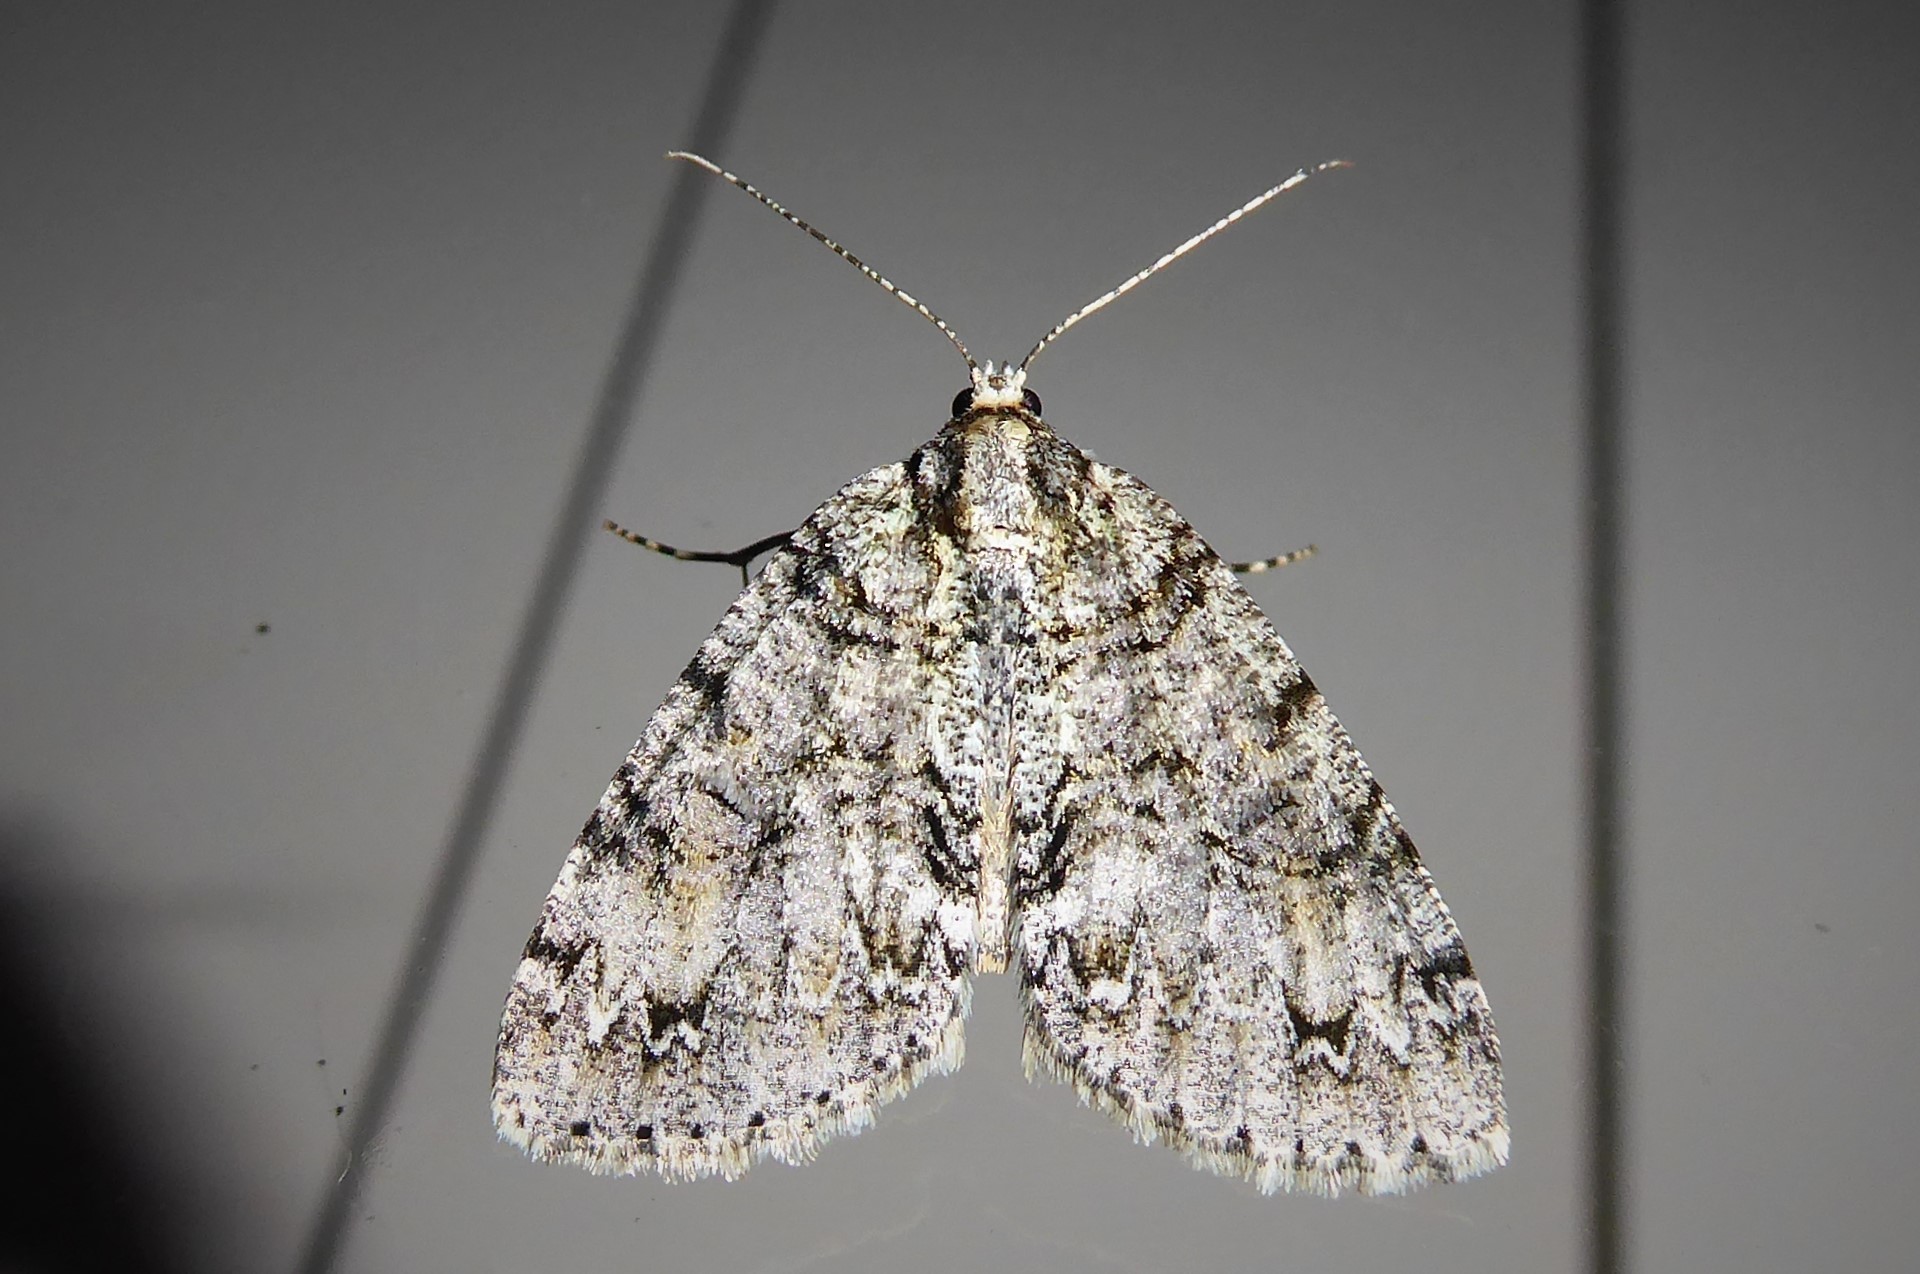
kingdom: Animalia
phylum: Arthropoda
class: Insecta
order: Lepidoptera
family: Geometridae
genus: Pseudocoremia
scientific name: Pseudocoremia suavis
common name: Common forest looper
